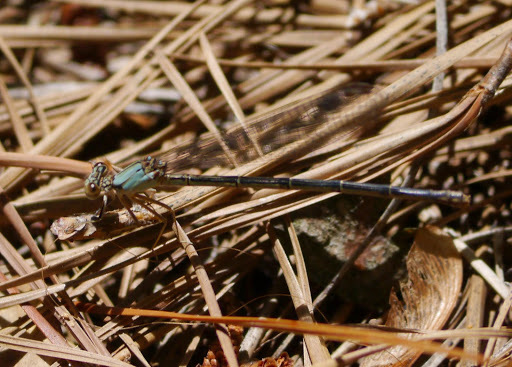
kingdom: Animalia
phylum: Arthropoda
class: Insecta
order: Odonata
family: Coenagrionidae
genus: Argia
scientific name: Argia apicalis
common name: Blue-fronted dancer
